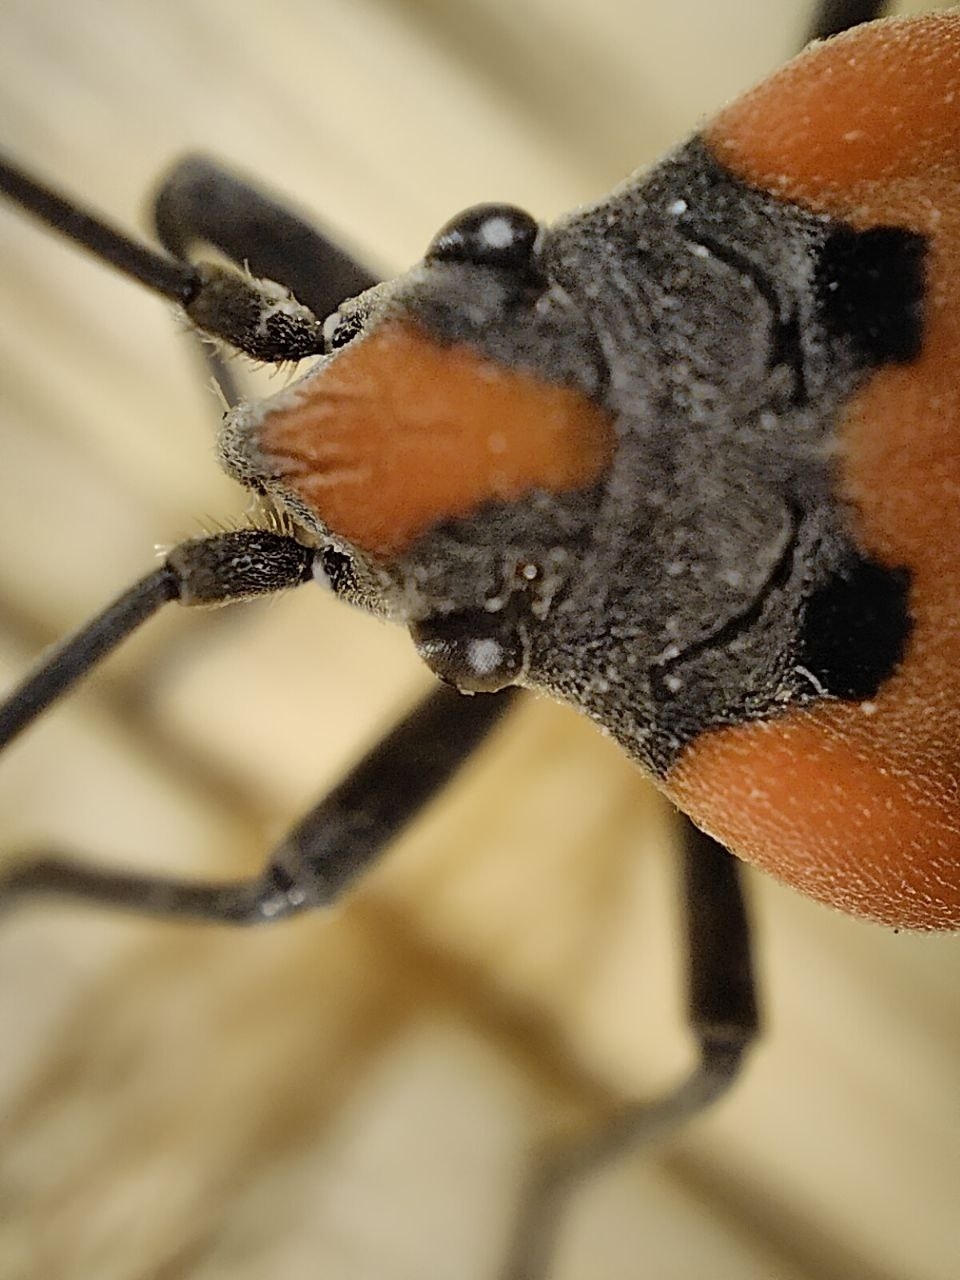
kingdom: Animalia
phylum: Arthropoda
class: Insecta
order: Hemiptera
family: Lygaeidae
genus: Lygaeus
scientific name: Lygaeus equestris
